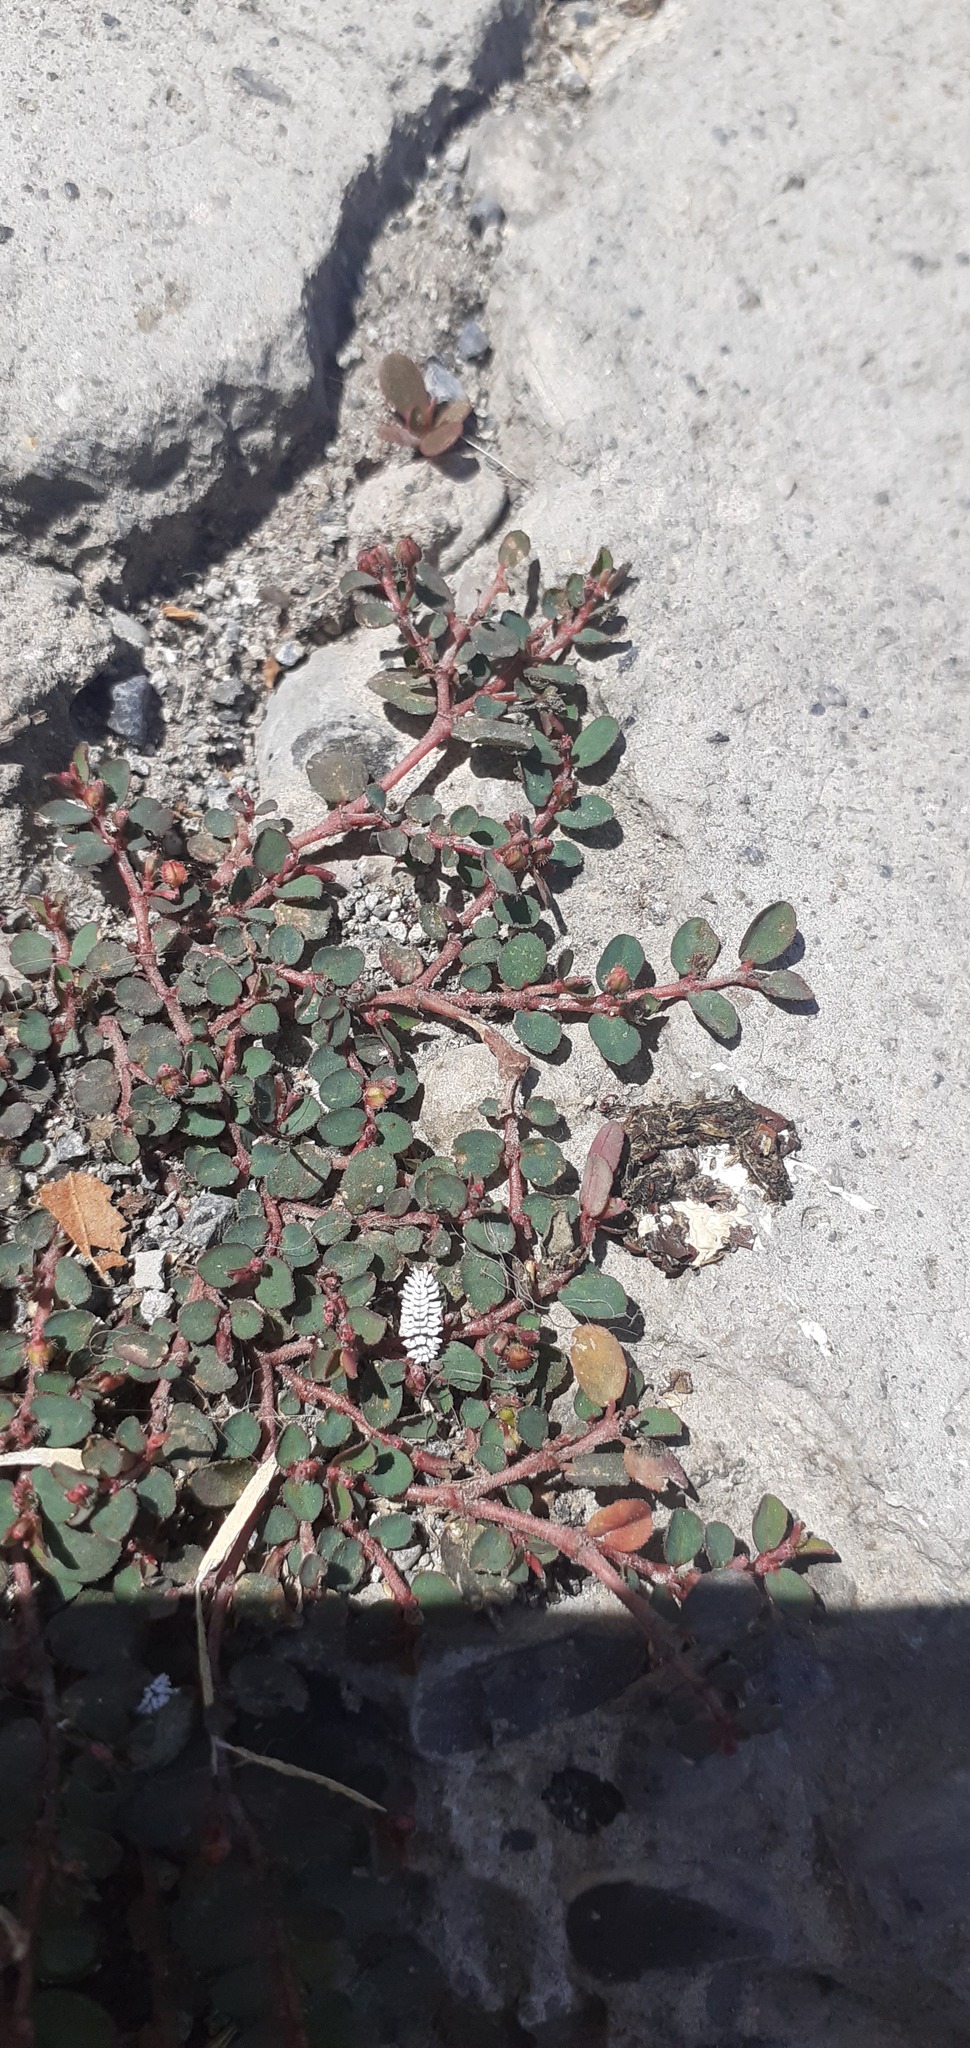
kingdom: Plantae
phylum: Tracheophyta
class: Magnoliopsida
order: Malpighiales
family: Euphorbiaceae
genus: Euphorbia
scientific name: Euphorbia prostrata
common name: Prostrate sandmat
